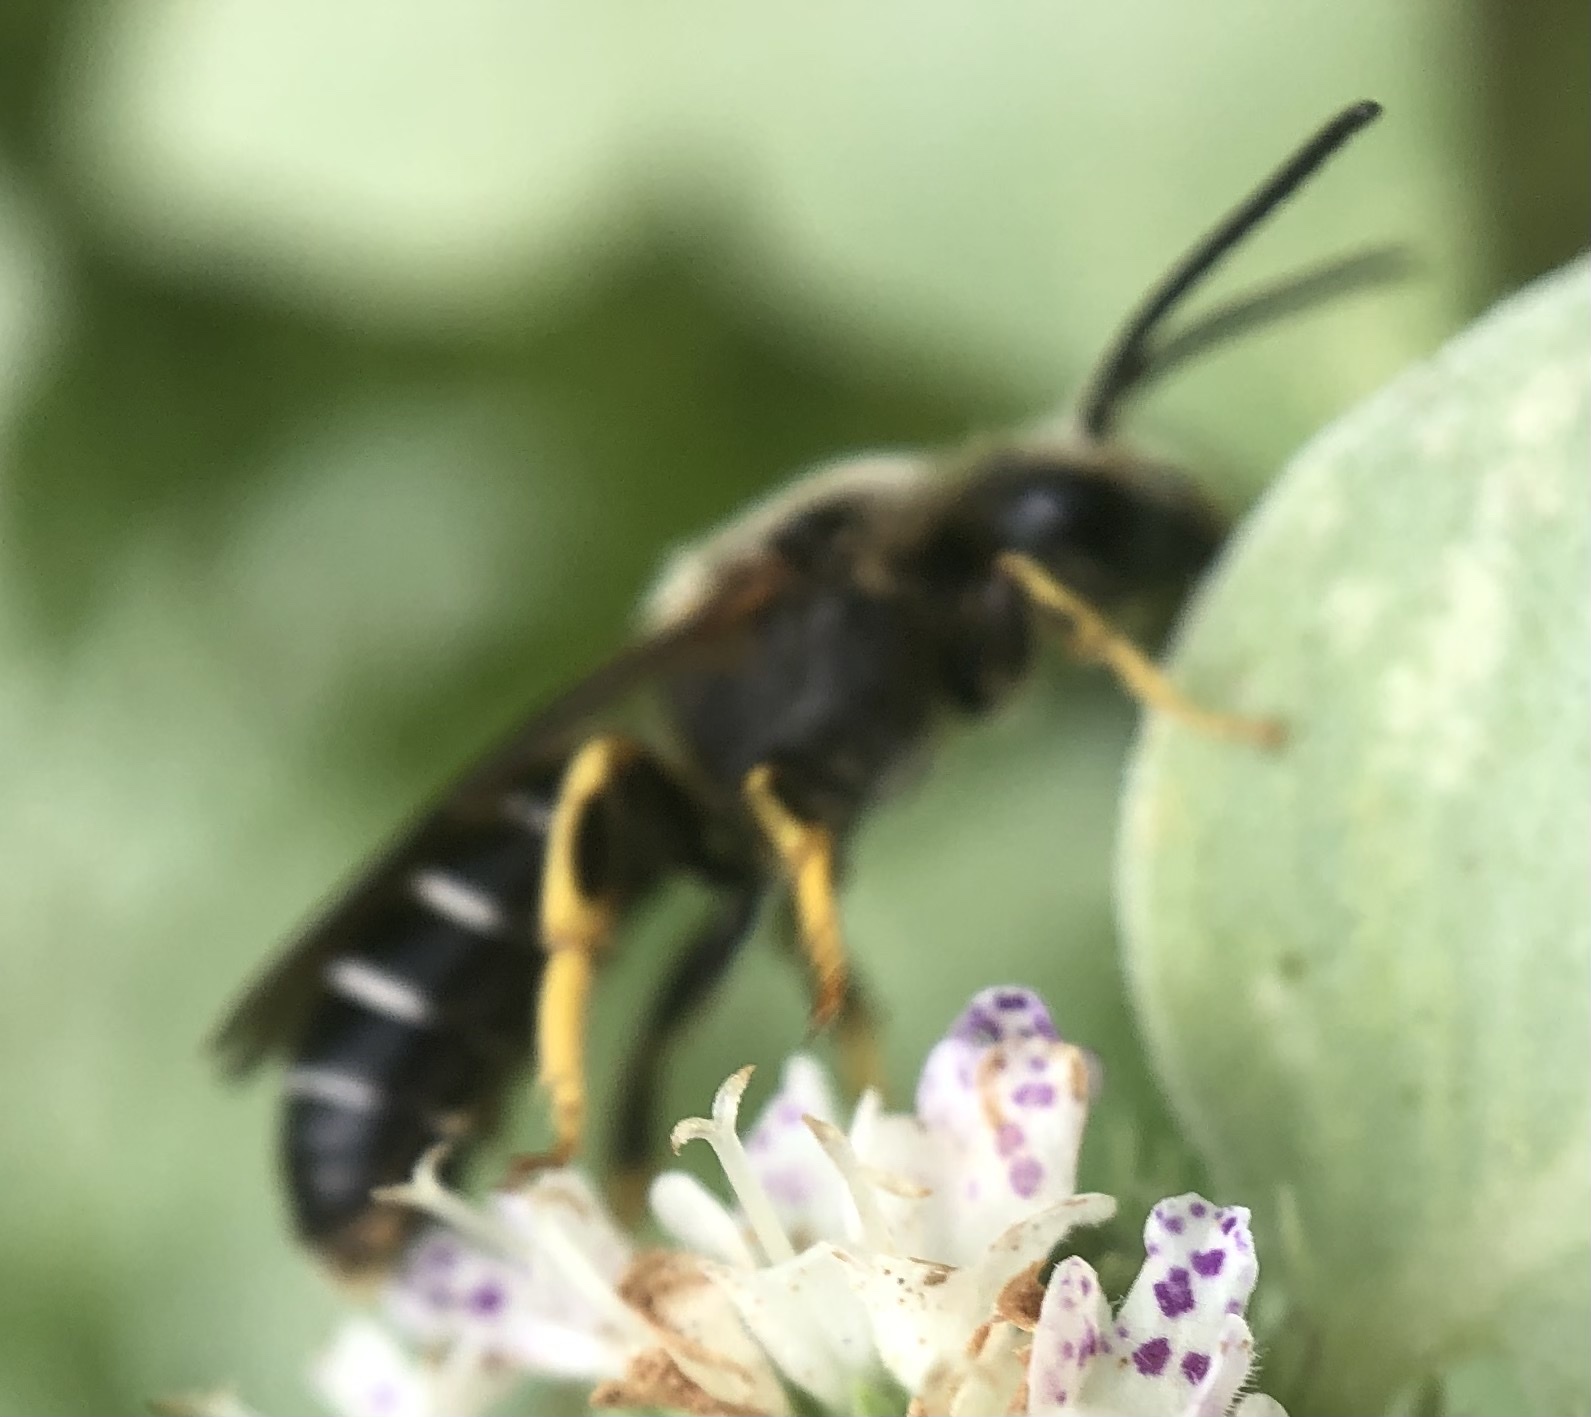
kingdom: Animalia
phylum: Arthropoda
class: Insecta
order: Hymenoptera
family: Halictidae
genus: Halictus
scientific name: Halictus rubicundus
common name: Orange-legged furrow bee
